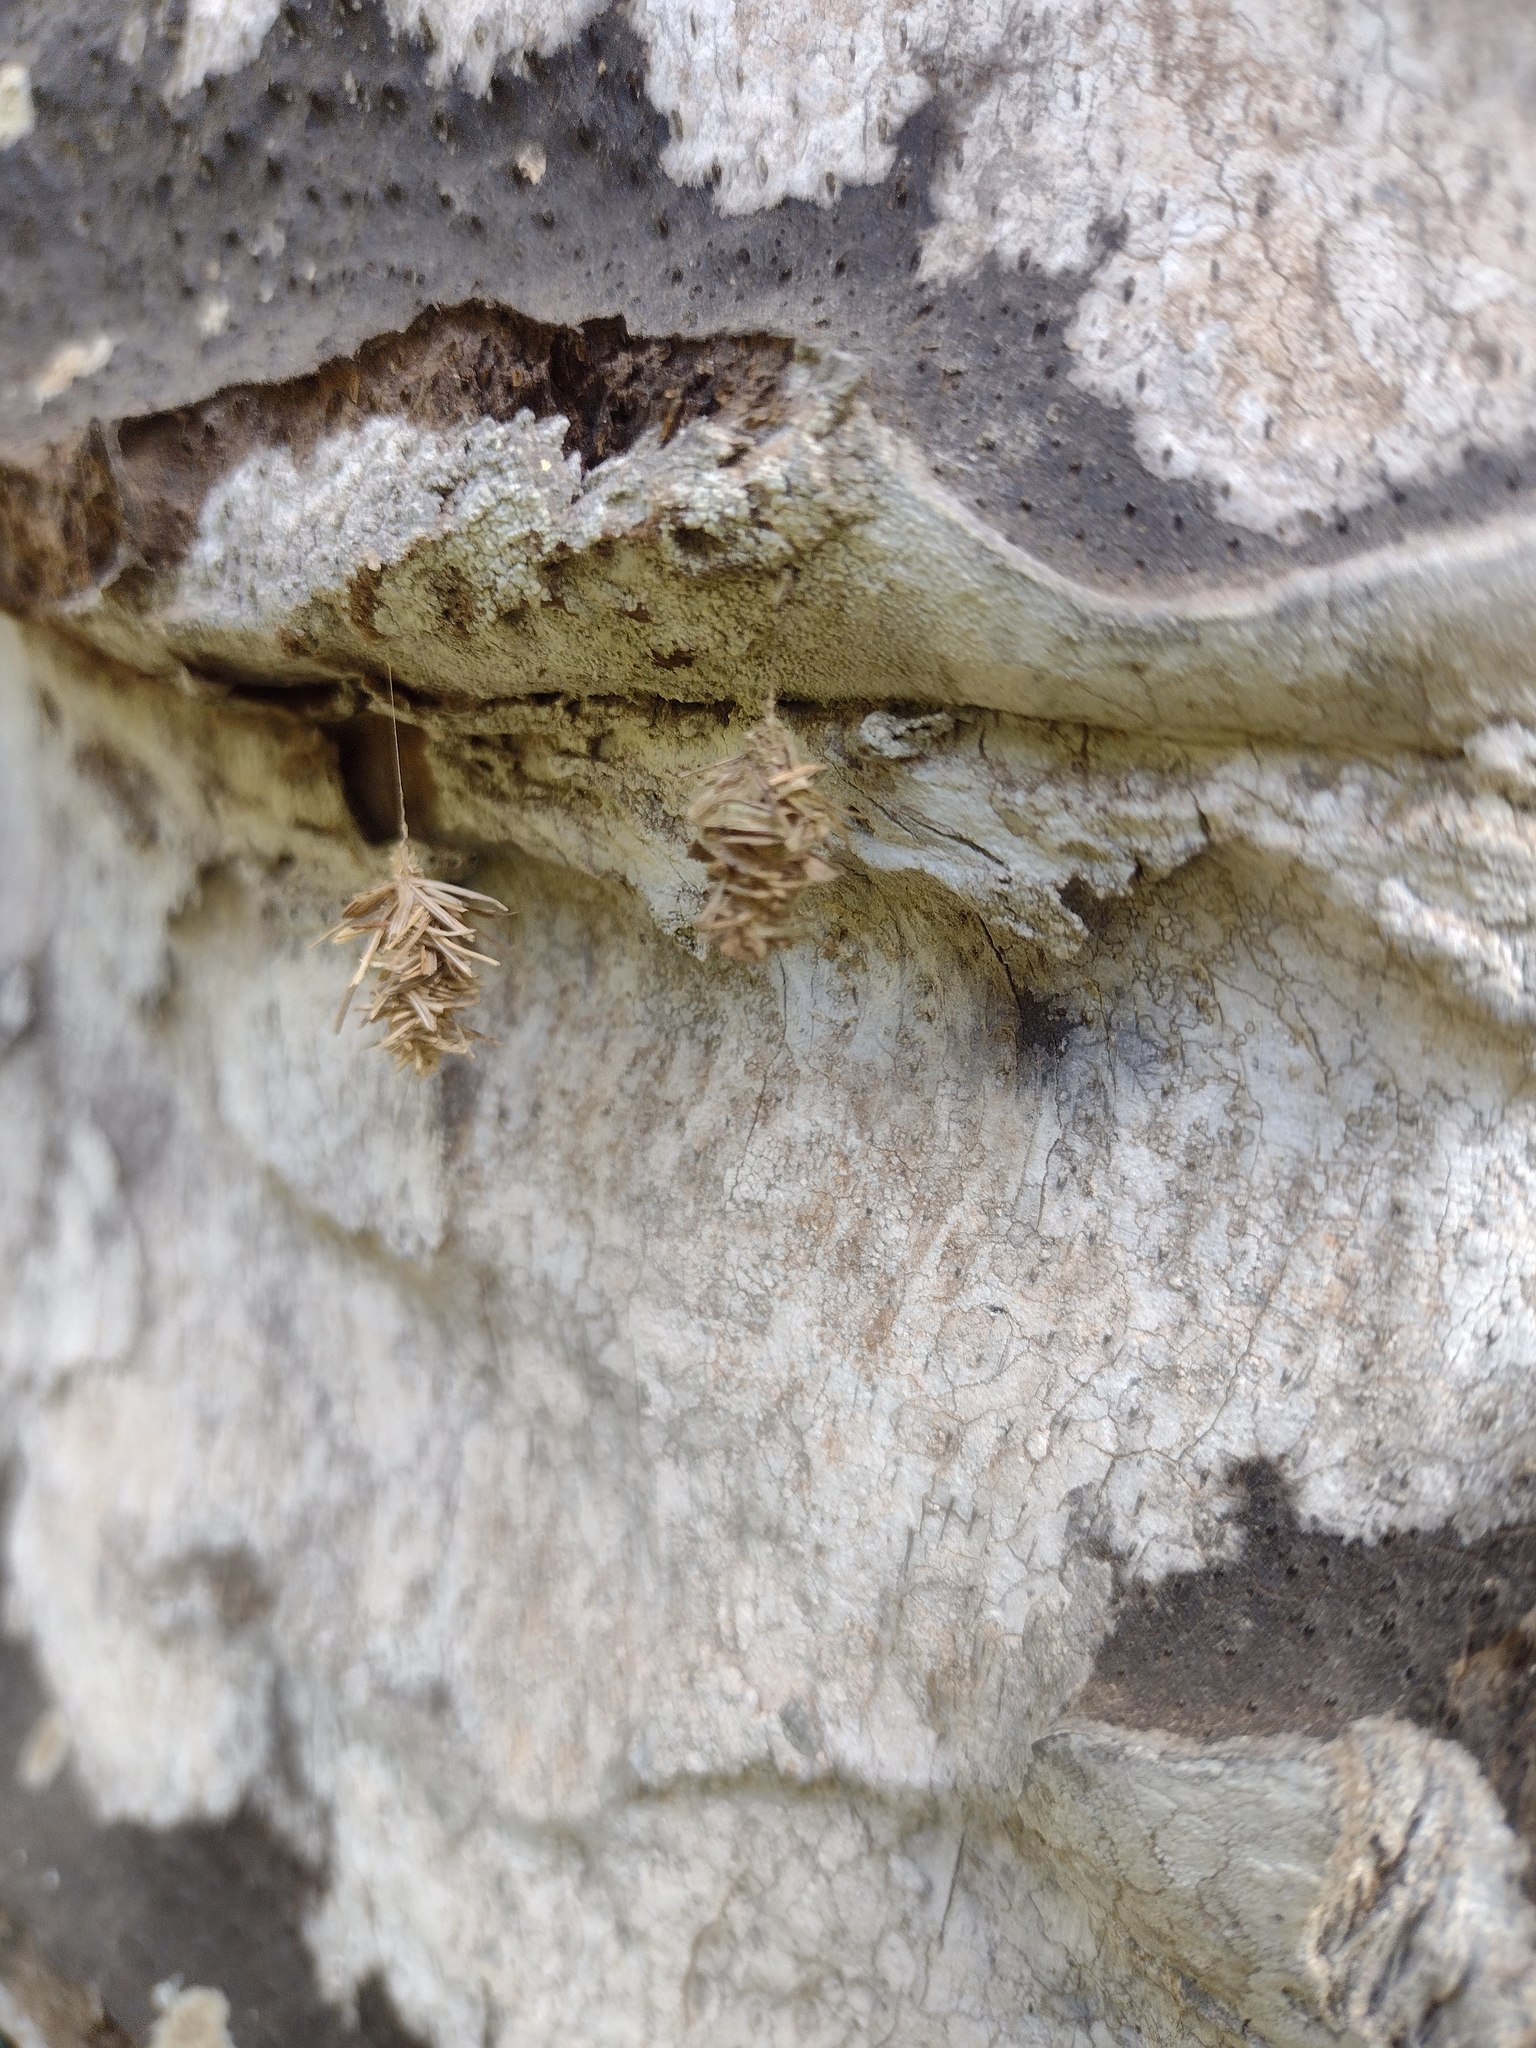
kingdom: Animalia
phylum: Arthropoda
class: Insecta
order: Lepidoptera
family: Psychidae
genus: Brachycyttarus
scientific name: Brachycyttarus griseus
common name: Grass bagworm
